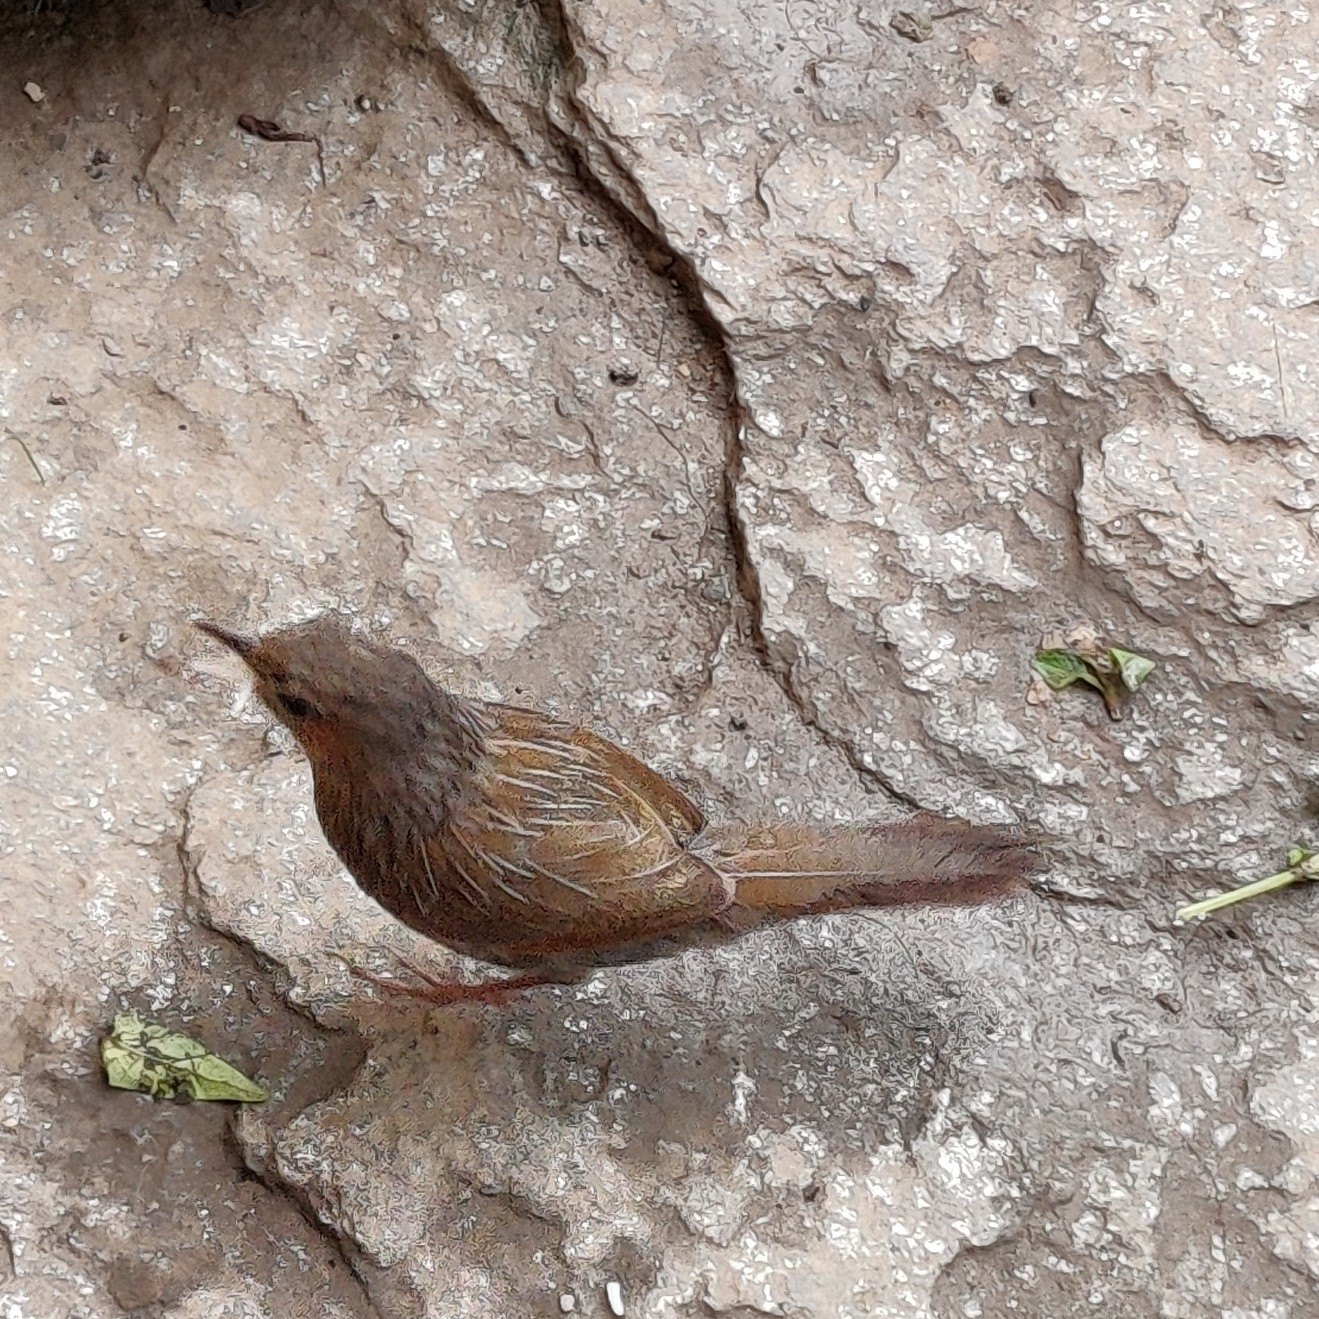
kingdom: Animalia
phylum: Chordata
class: Aves
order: Passeriformes
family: Leiothrichidae
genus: Trochalopteron
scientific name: Trochalopteron lineatum
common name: Streaked laughingthrush
